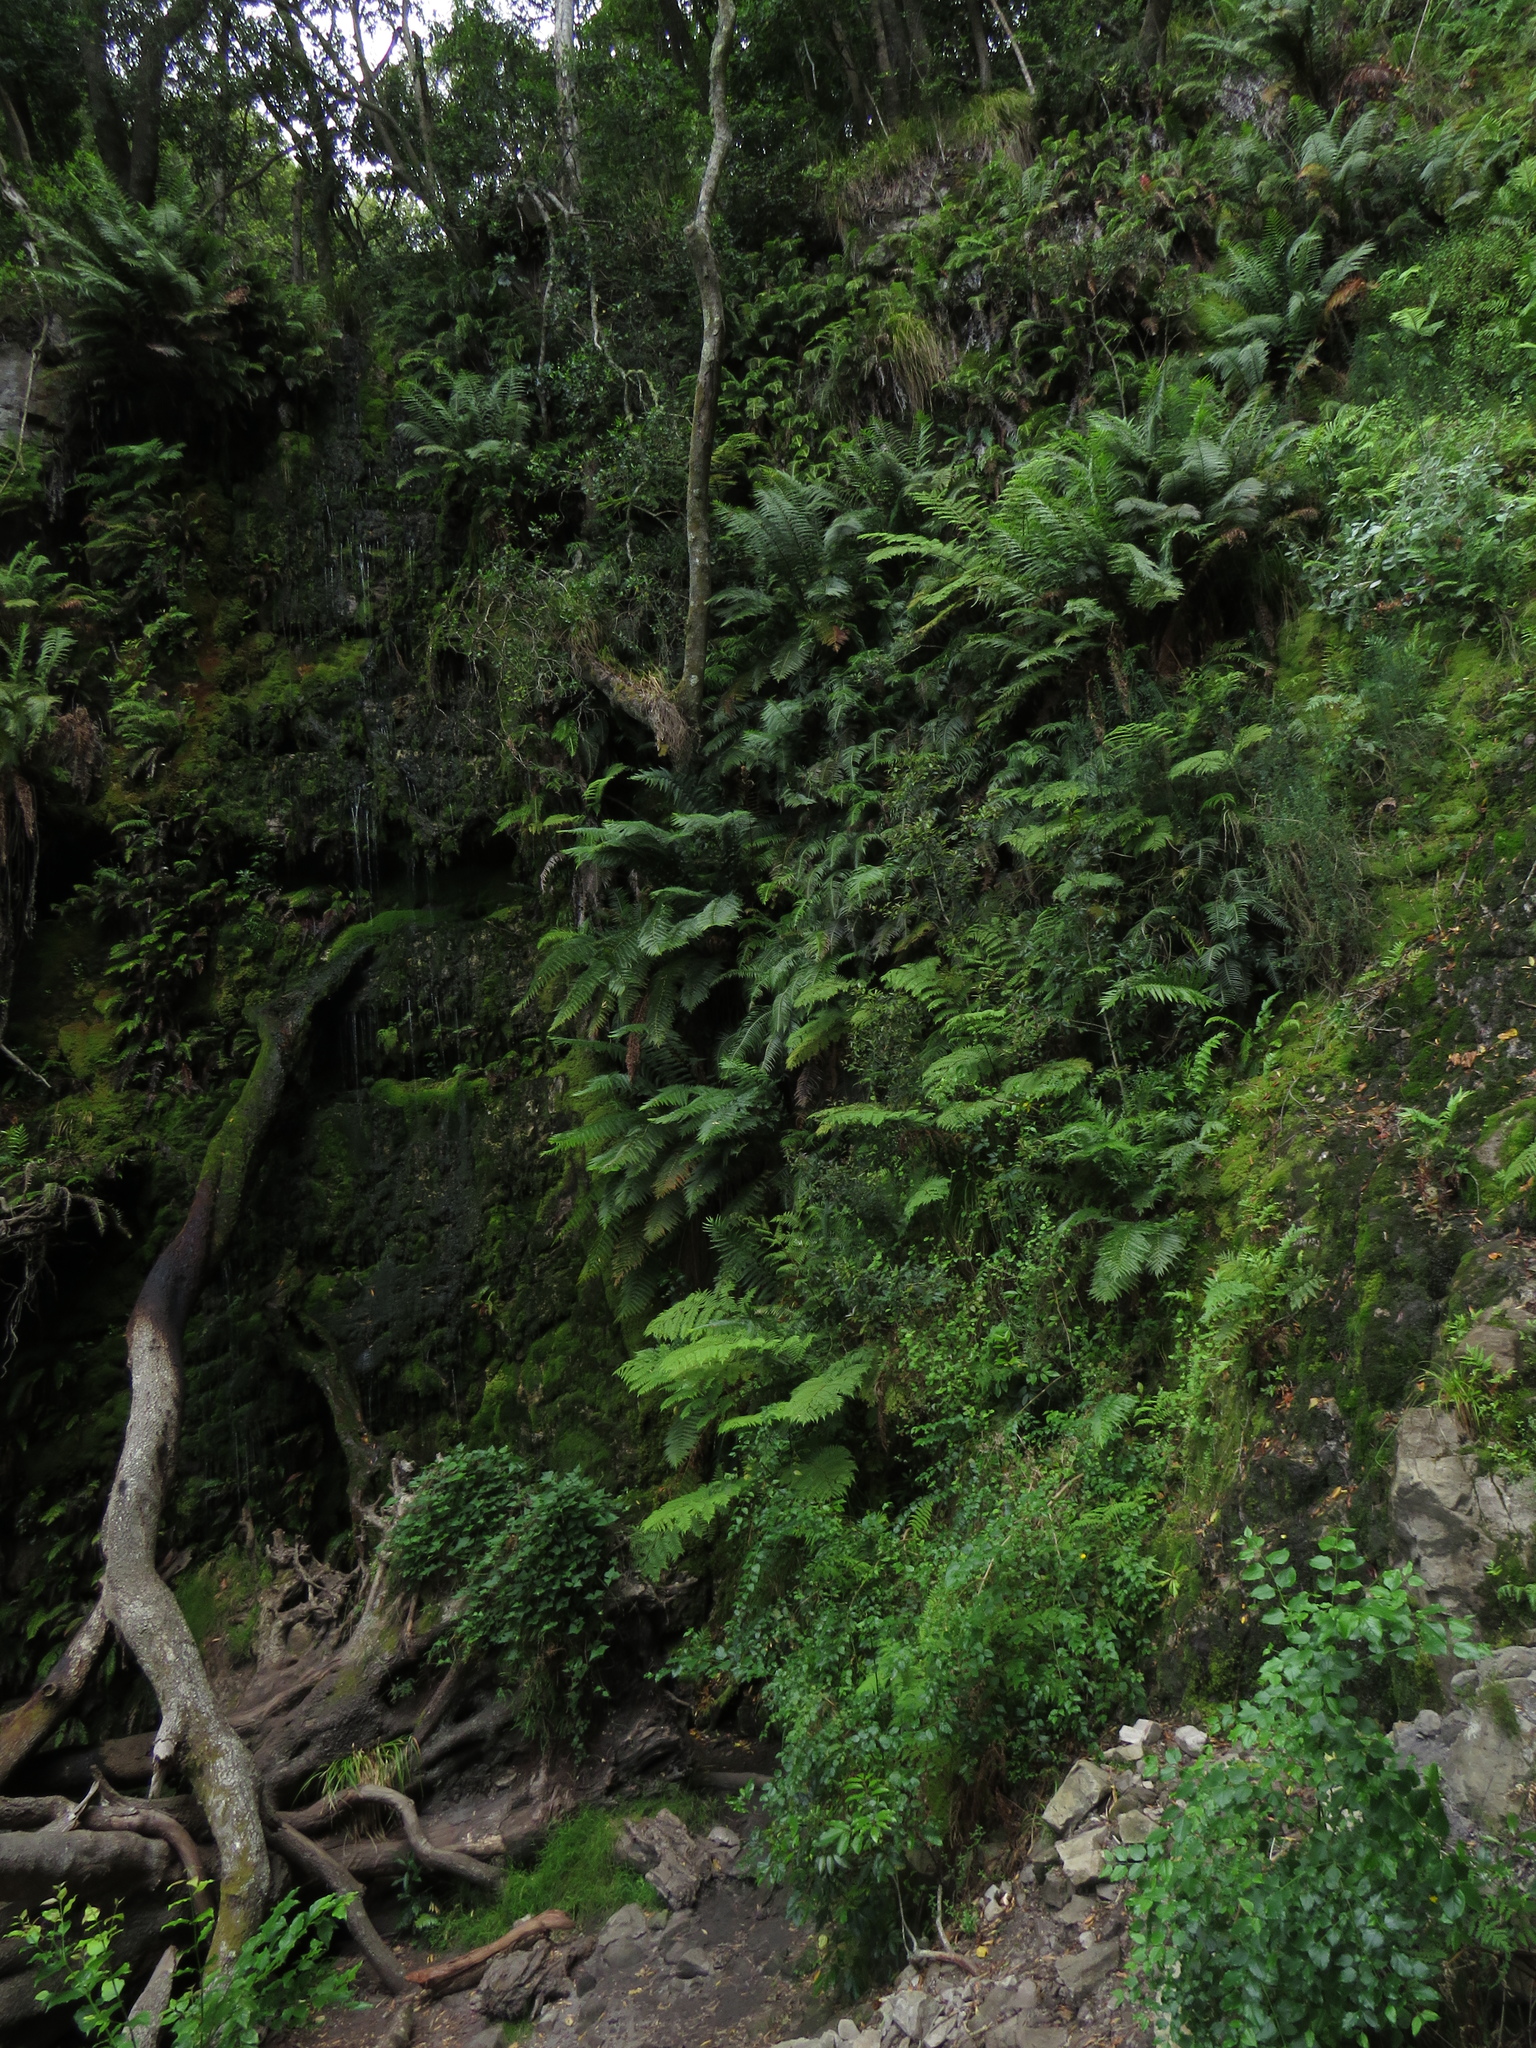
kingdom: Plantae
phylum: Tracheophyta
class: Polypodiopsida
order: Osmundales
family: Osmundaceae
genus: Todea
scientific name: Todea barbara
